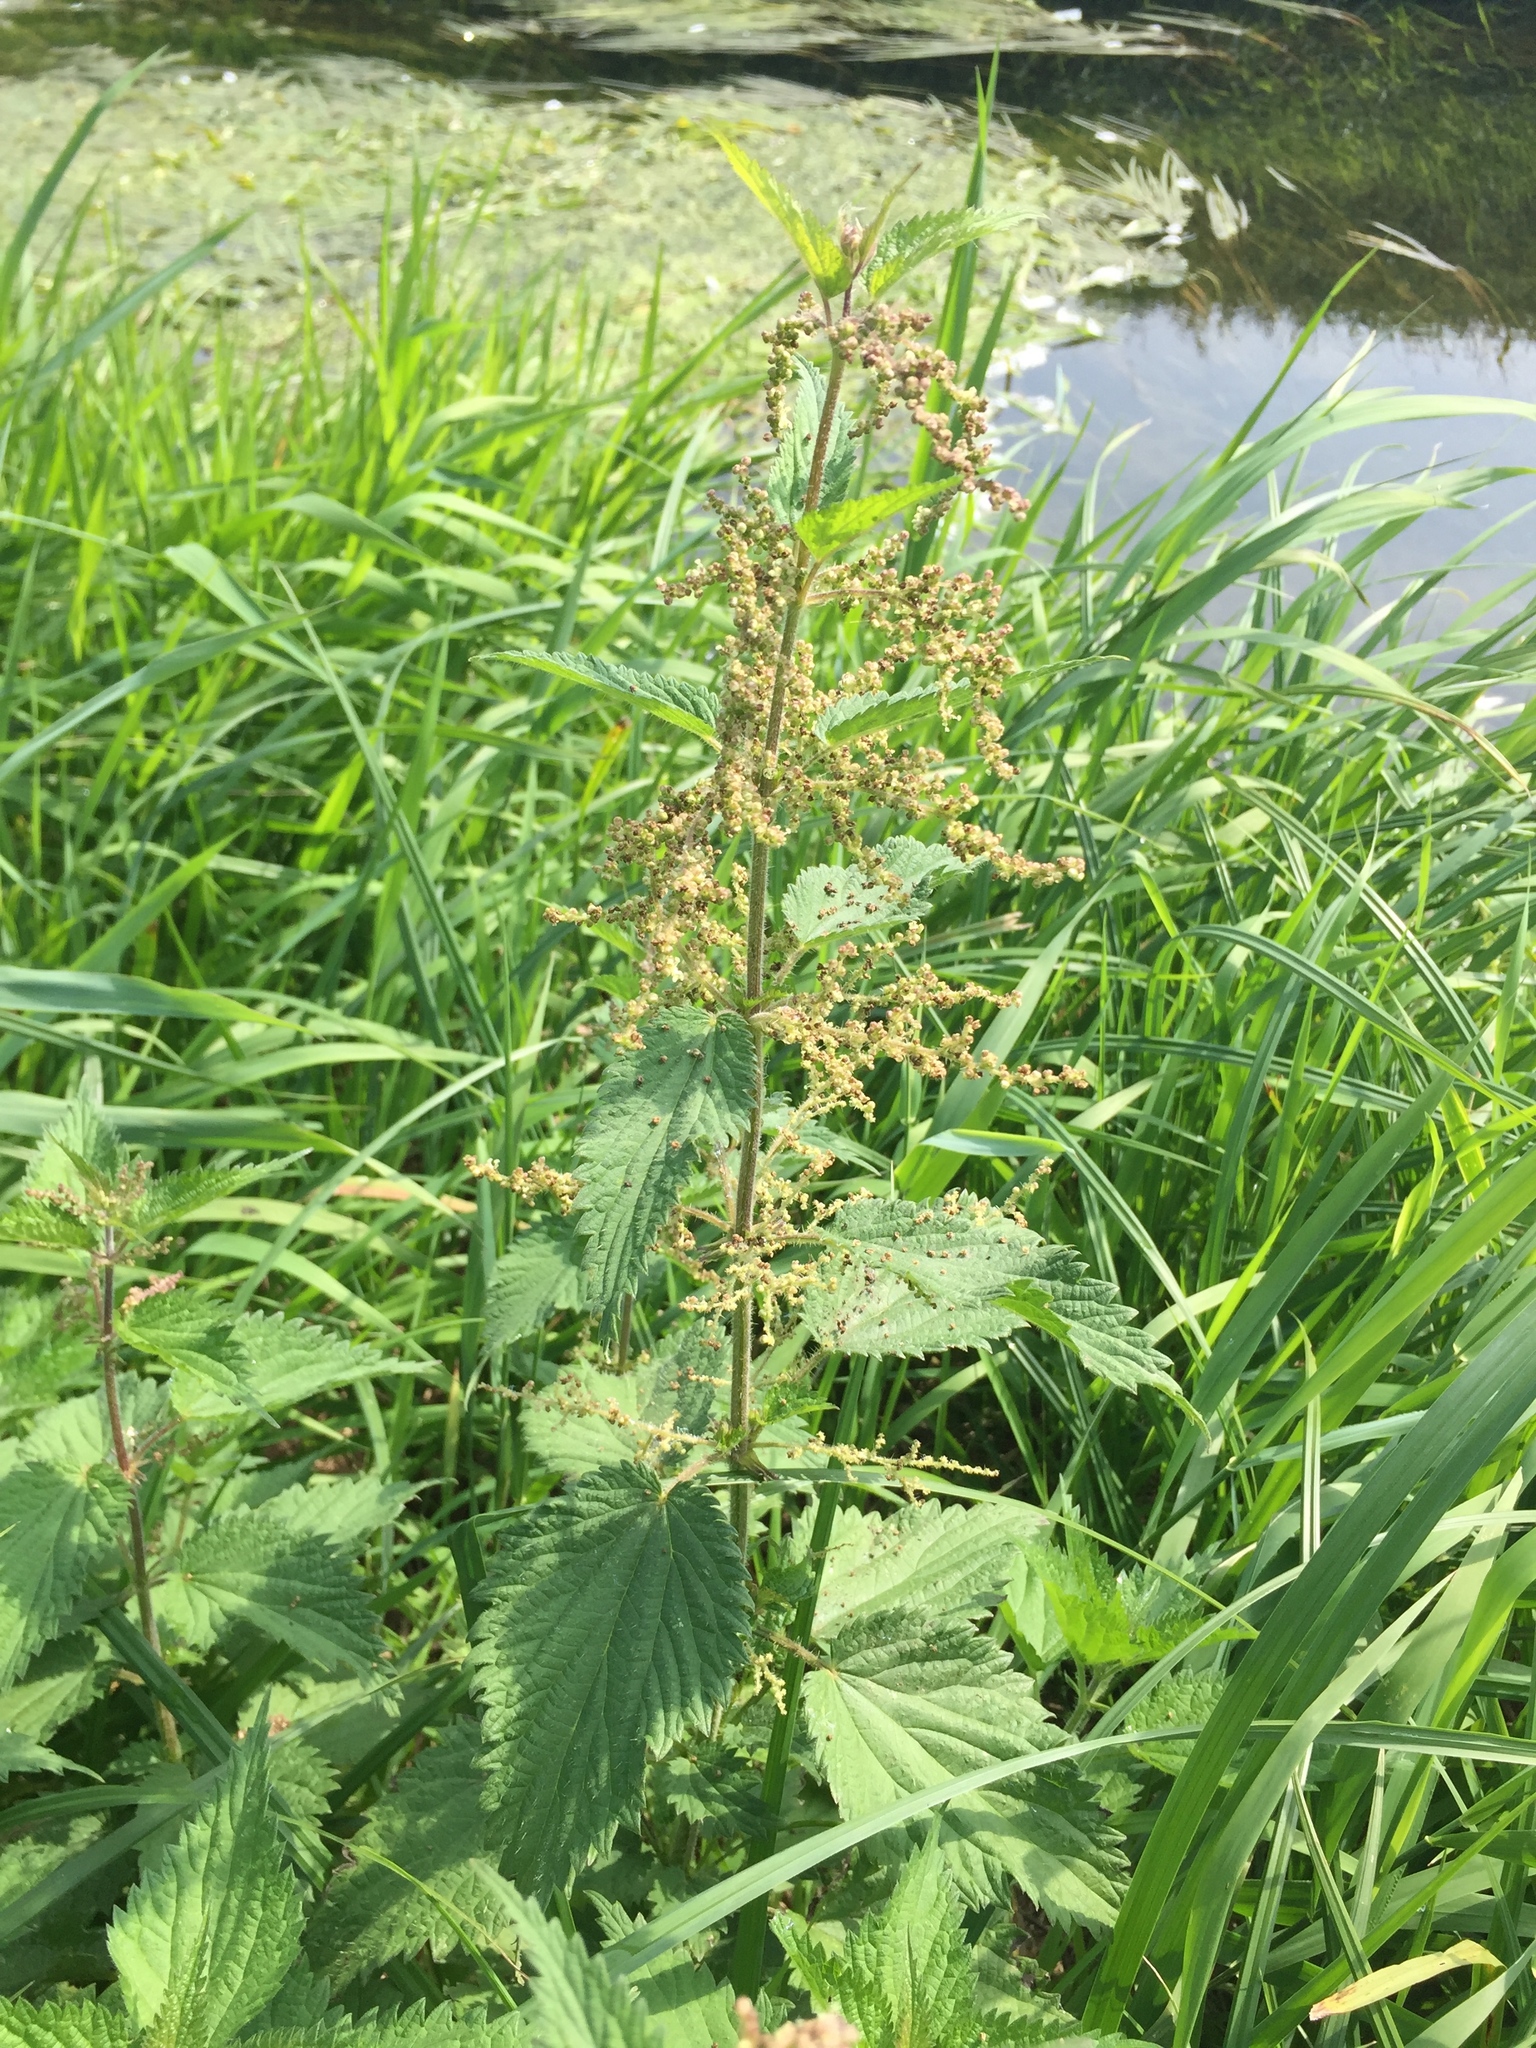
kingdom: Plantae
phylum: Tracheophyta
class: Magnoliopsida
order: Rosales
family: Urticaceae
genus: Urtica
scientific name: Urtica dioica
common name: Common nettle
